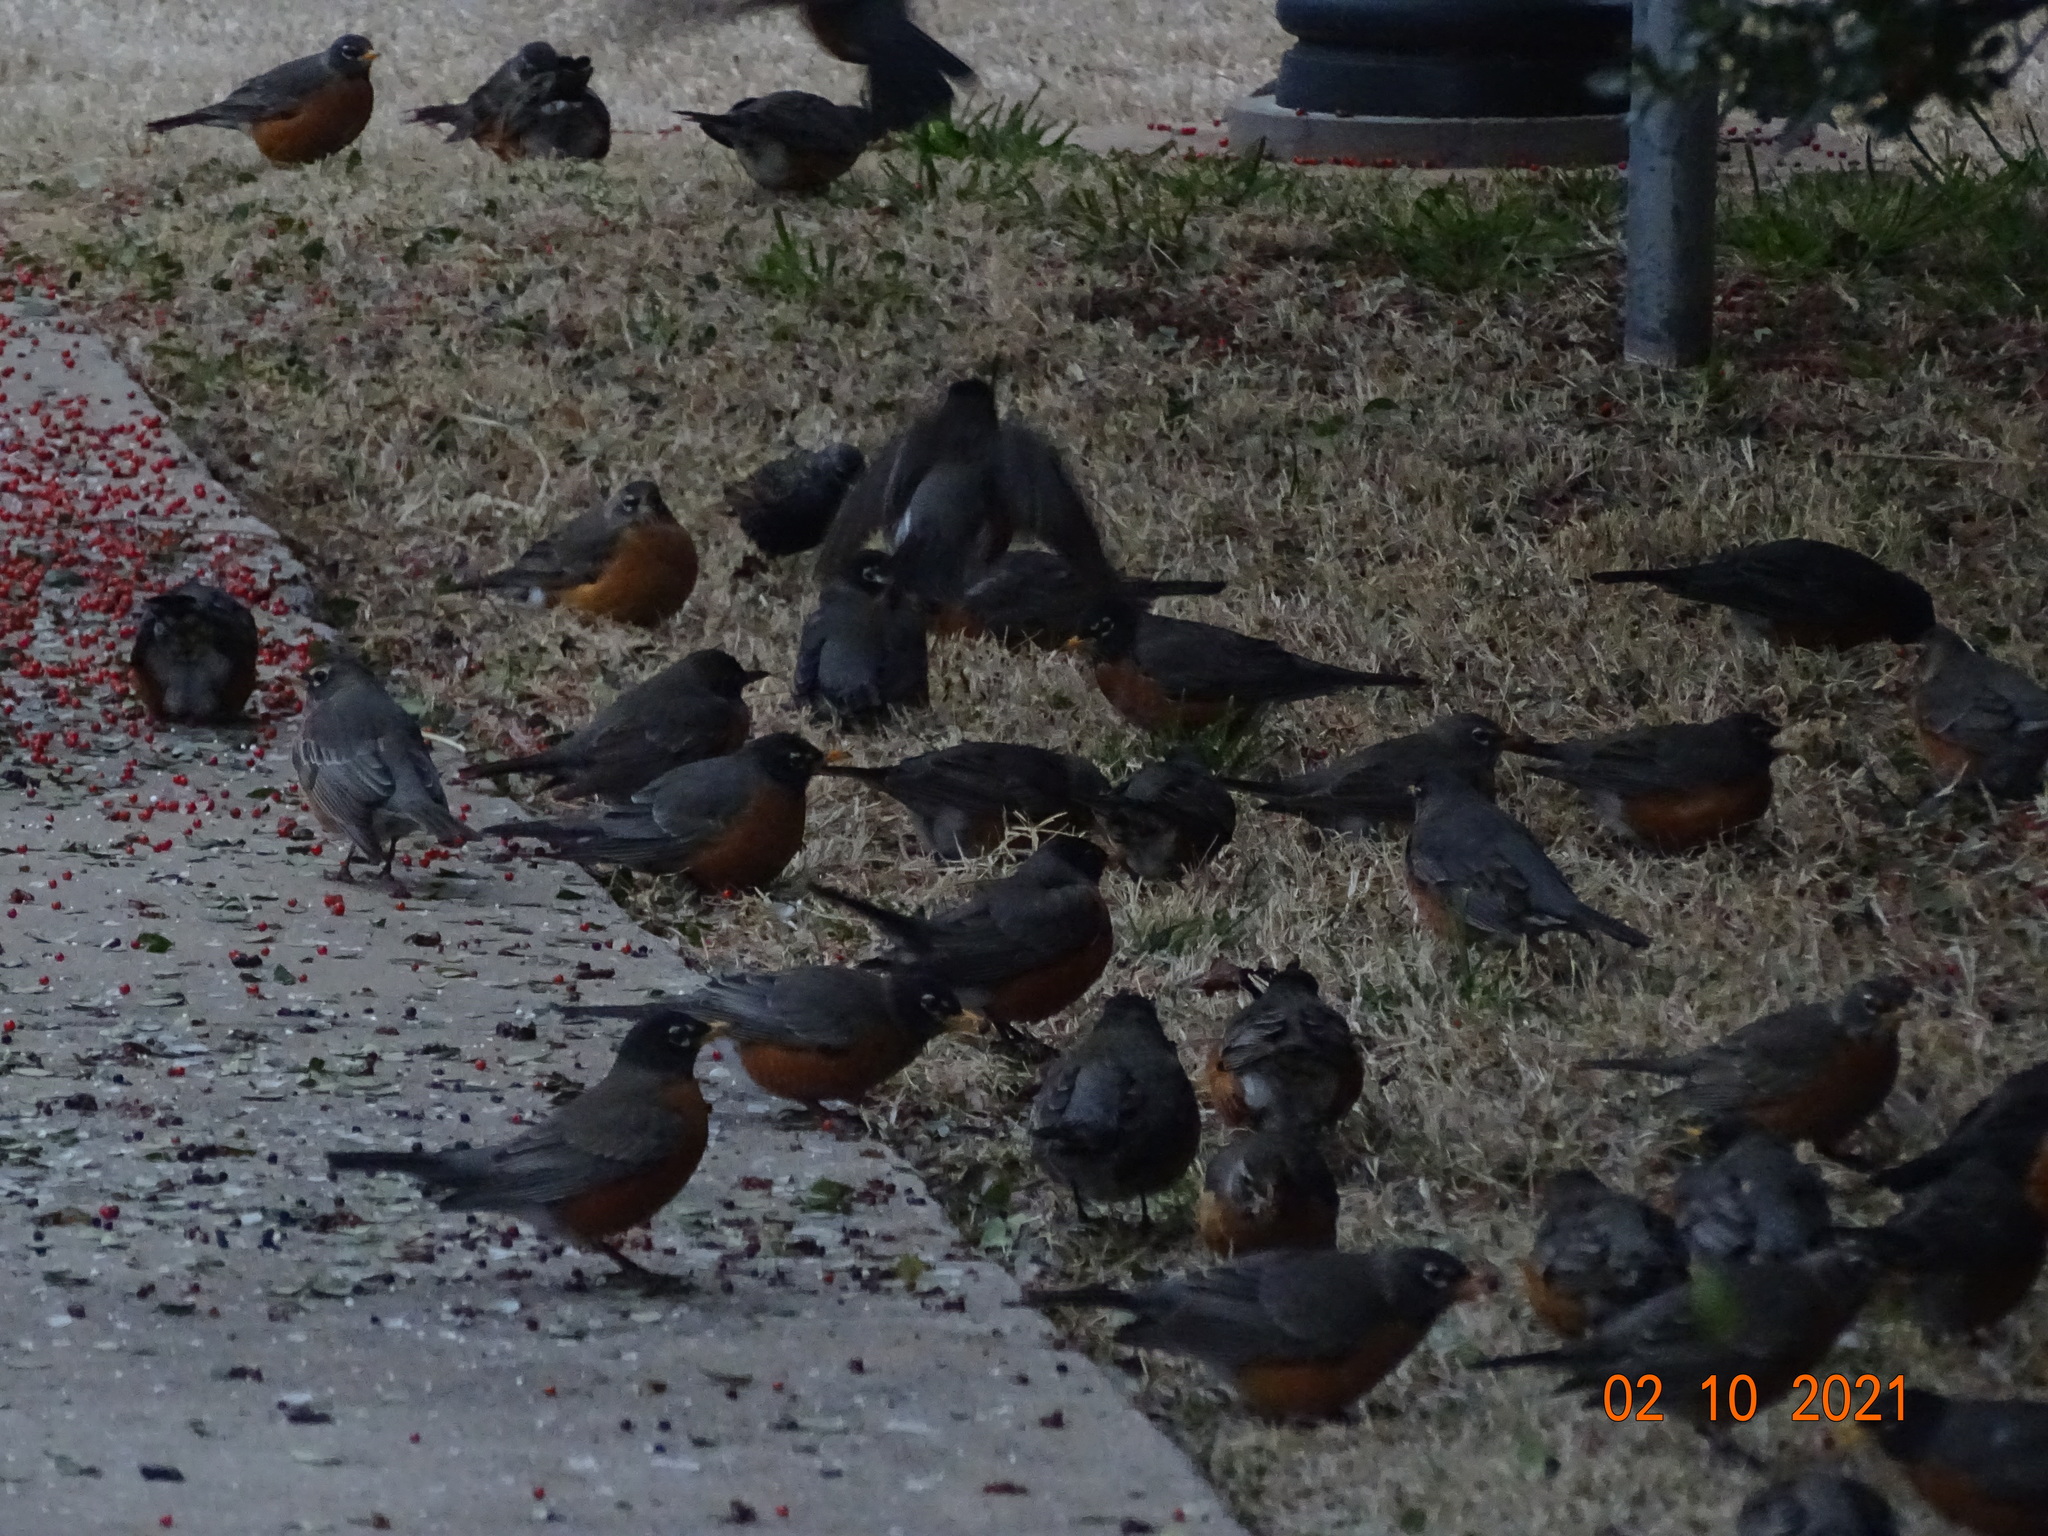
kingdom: Animalia
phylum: Chordata
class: Aves
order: Passeriformes
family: Turdidae
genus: Turdus
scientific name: Turdus migratorius
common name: American robin
